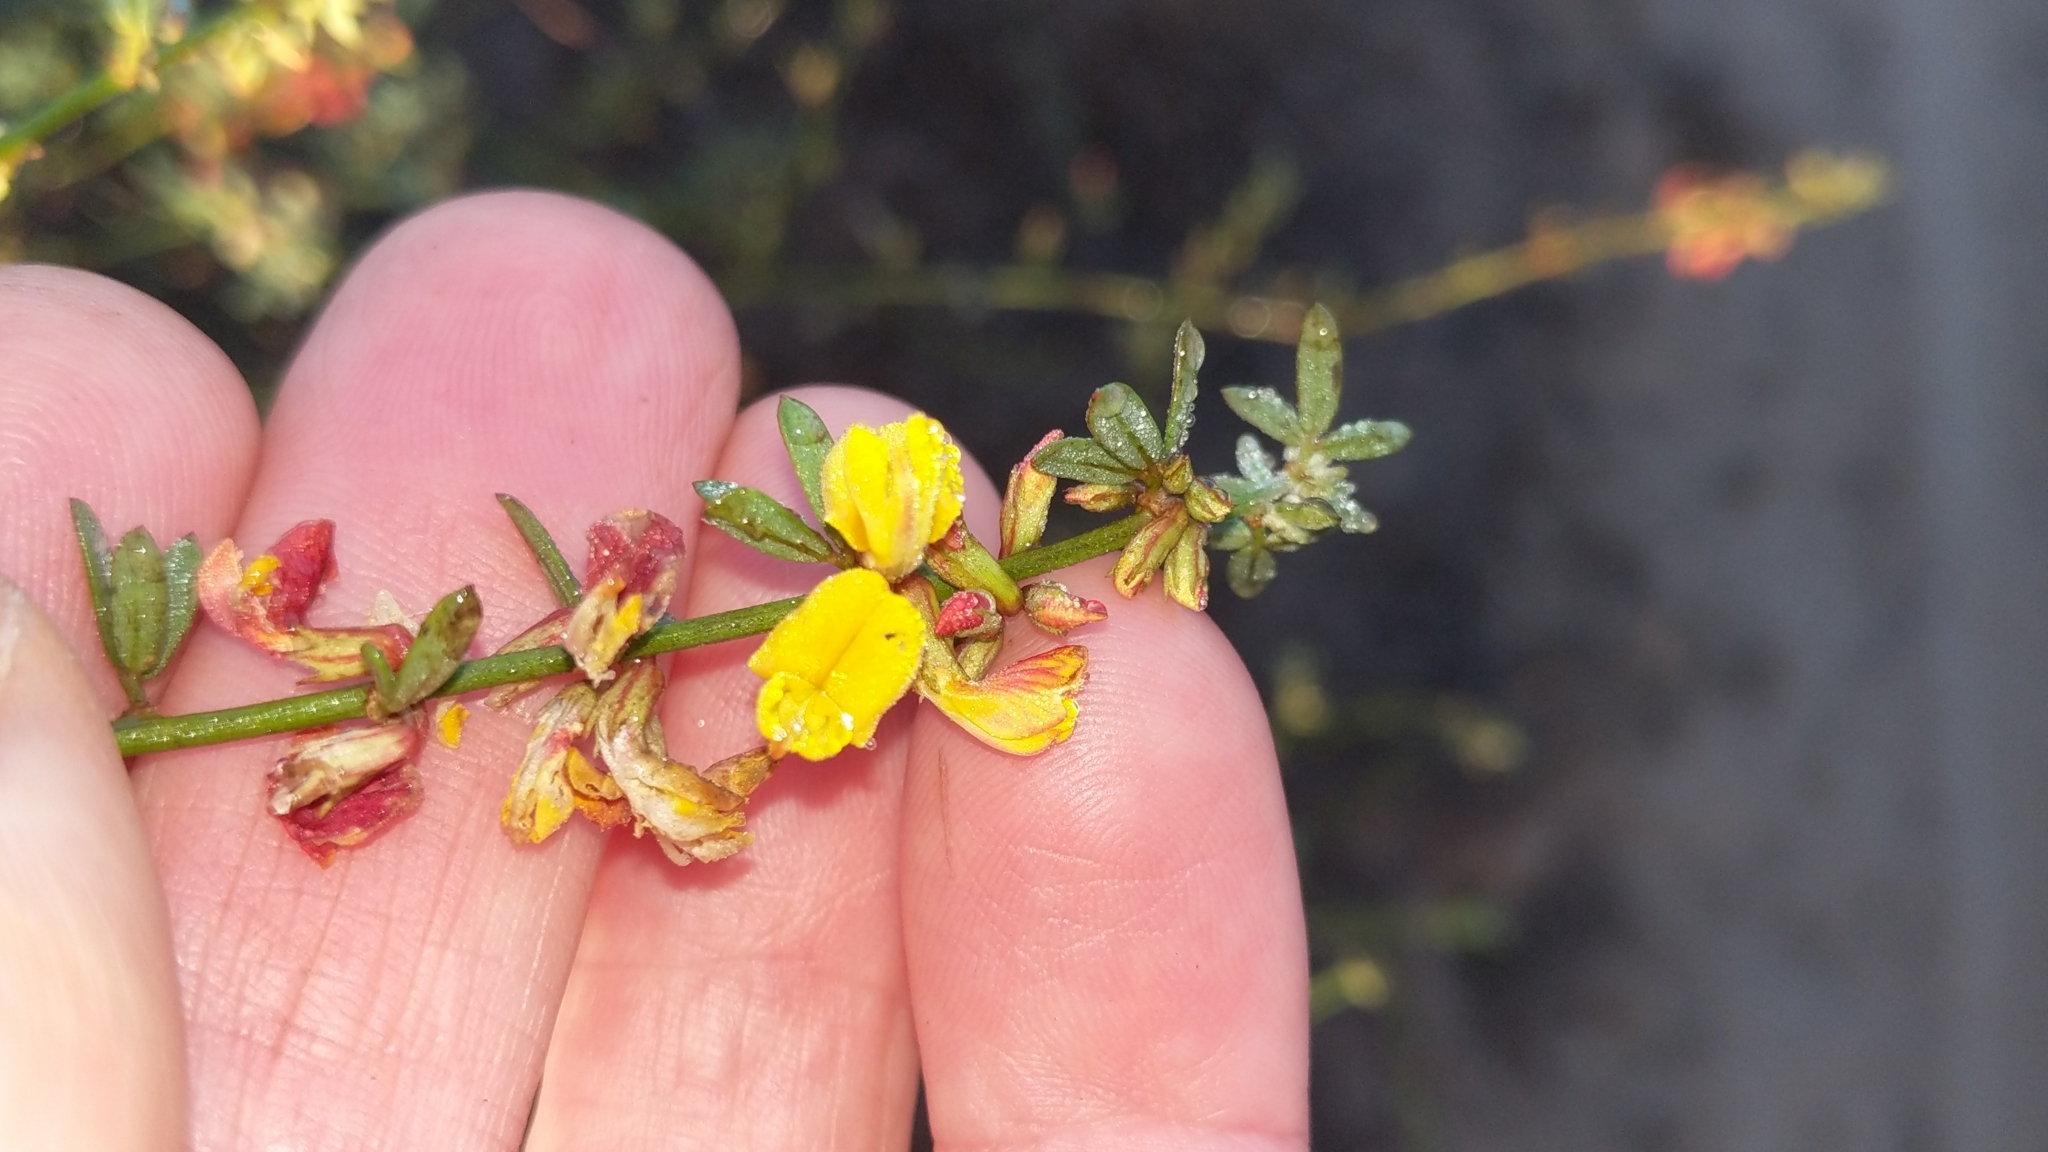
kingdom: Plantae
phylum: Tracheophyta
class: Magnoliopsida
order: Fabales
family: Fabaceae
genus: Acmispon
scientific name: Acmispon glaber
